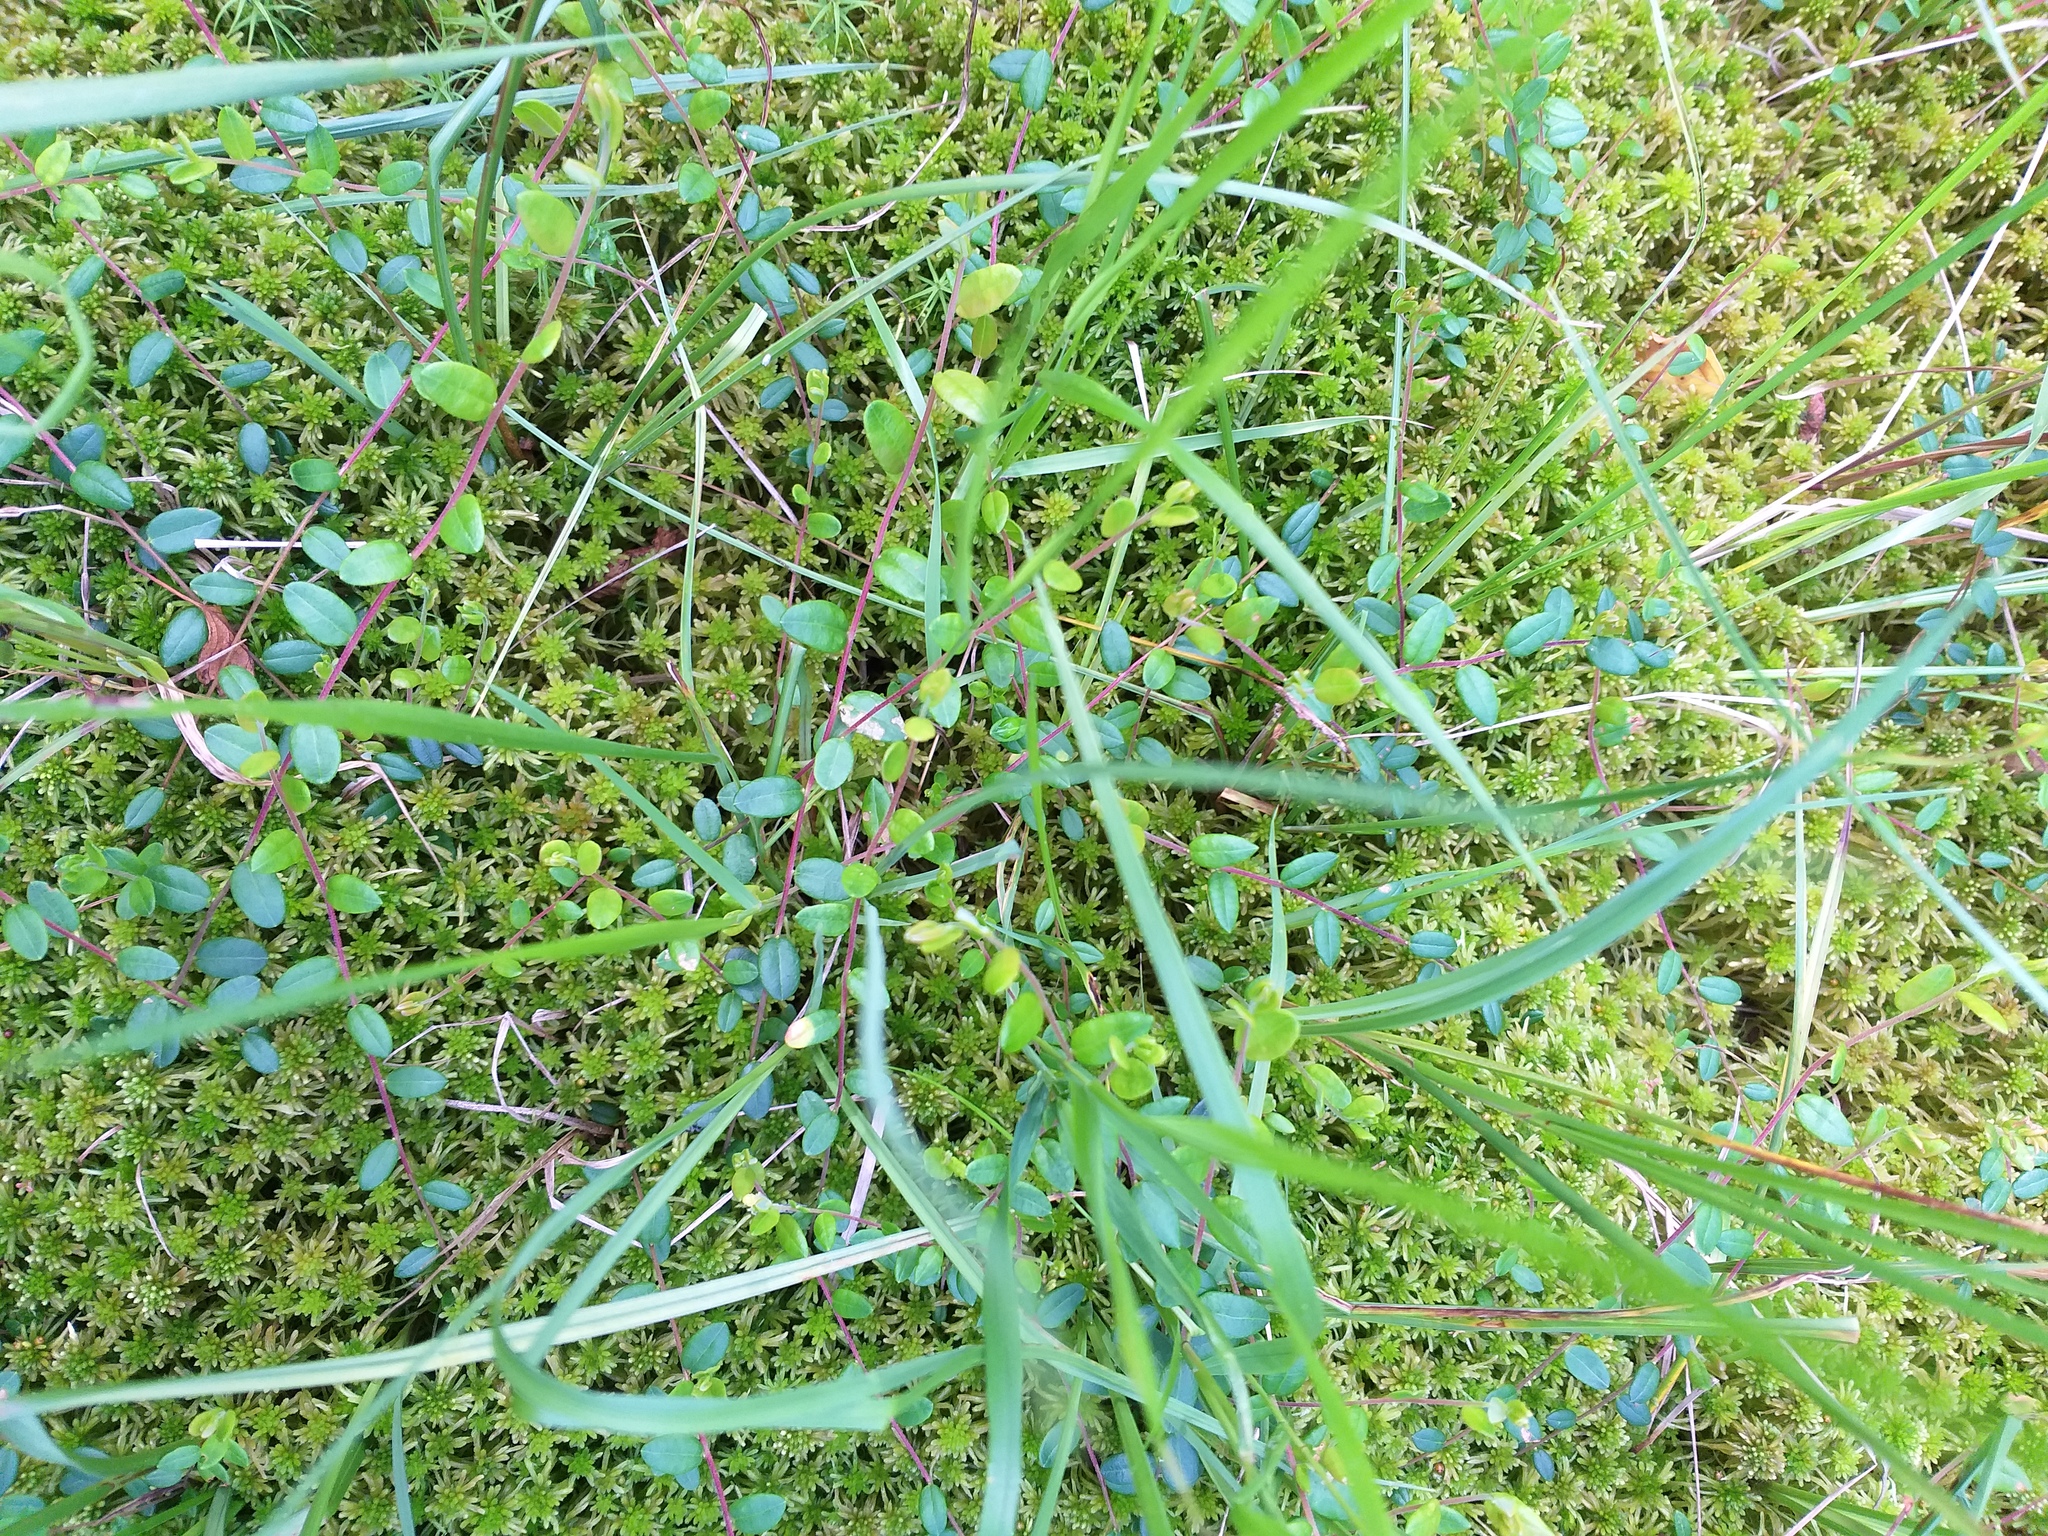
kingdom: Plantae
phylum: Tracheophyta
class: Magnoliopsida
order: Ericales
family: Ericaceae
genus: Vaccinium
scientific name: Vaccinium oxycoccos
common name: Cranberry
